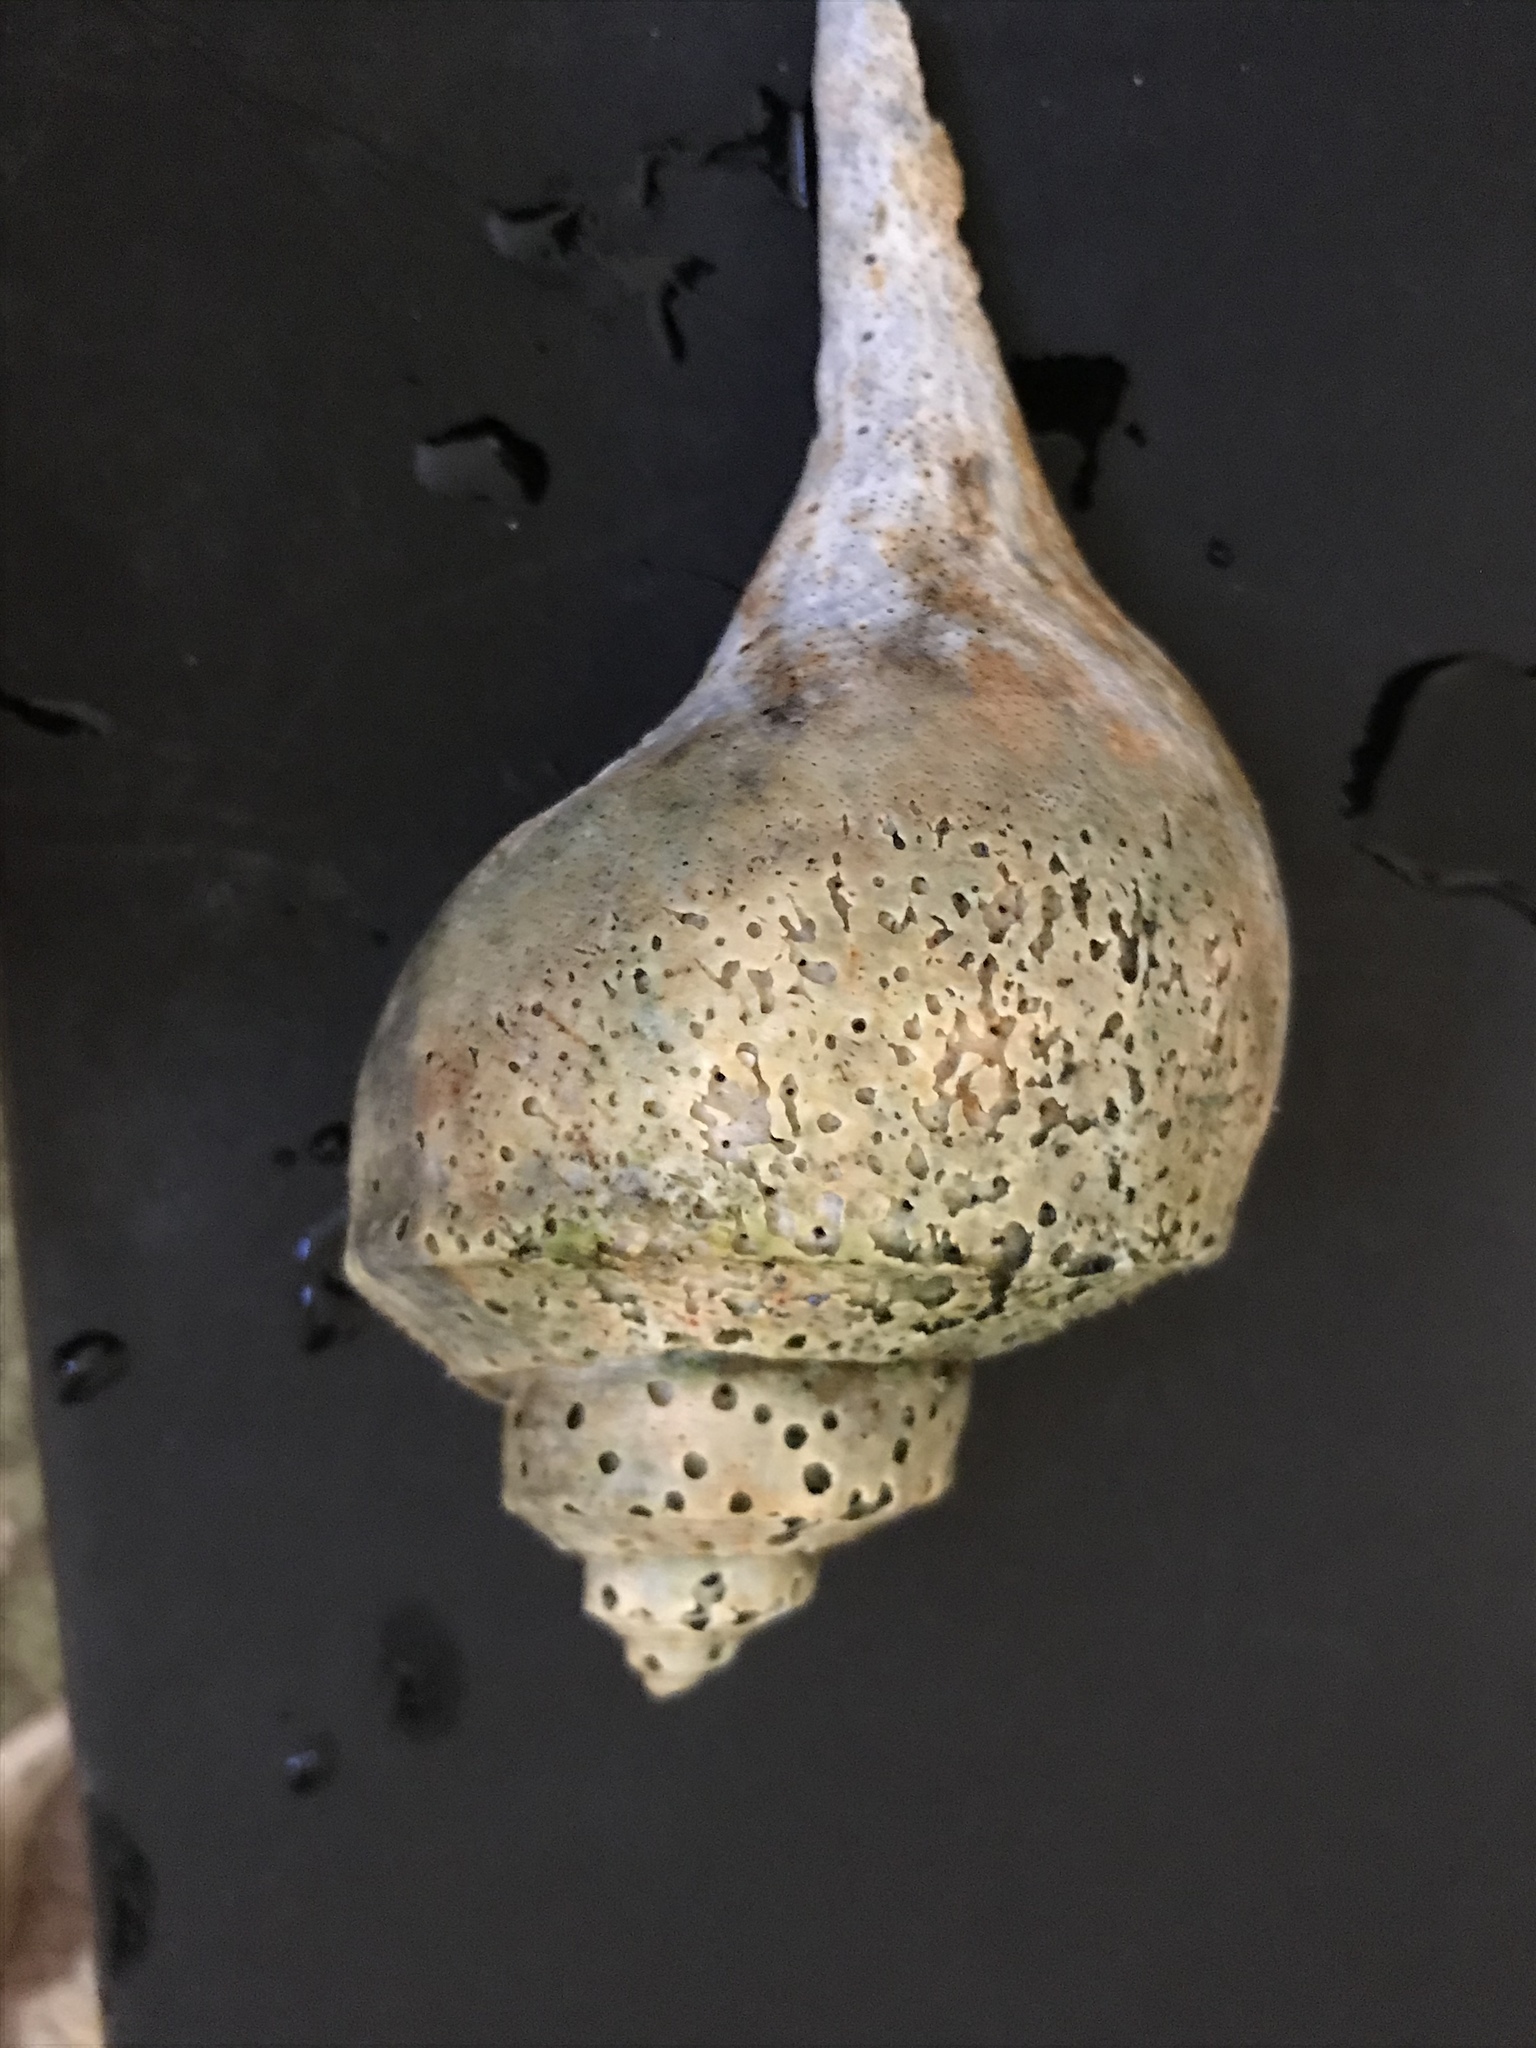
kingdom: Animalia
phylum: Mollusca
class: Gastropoda
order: Neogastropoda
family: Busyconidae
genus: Busycotypus
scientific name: Busycotypus canaliculatus
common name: Channeled whelk
